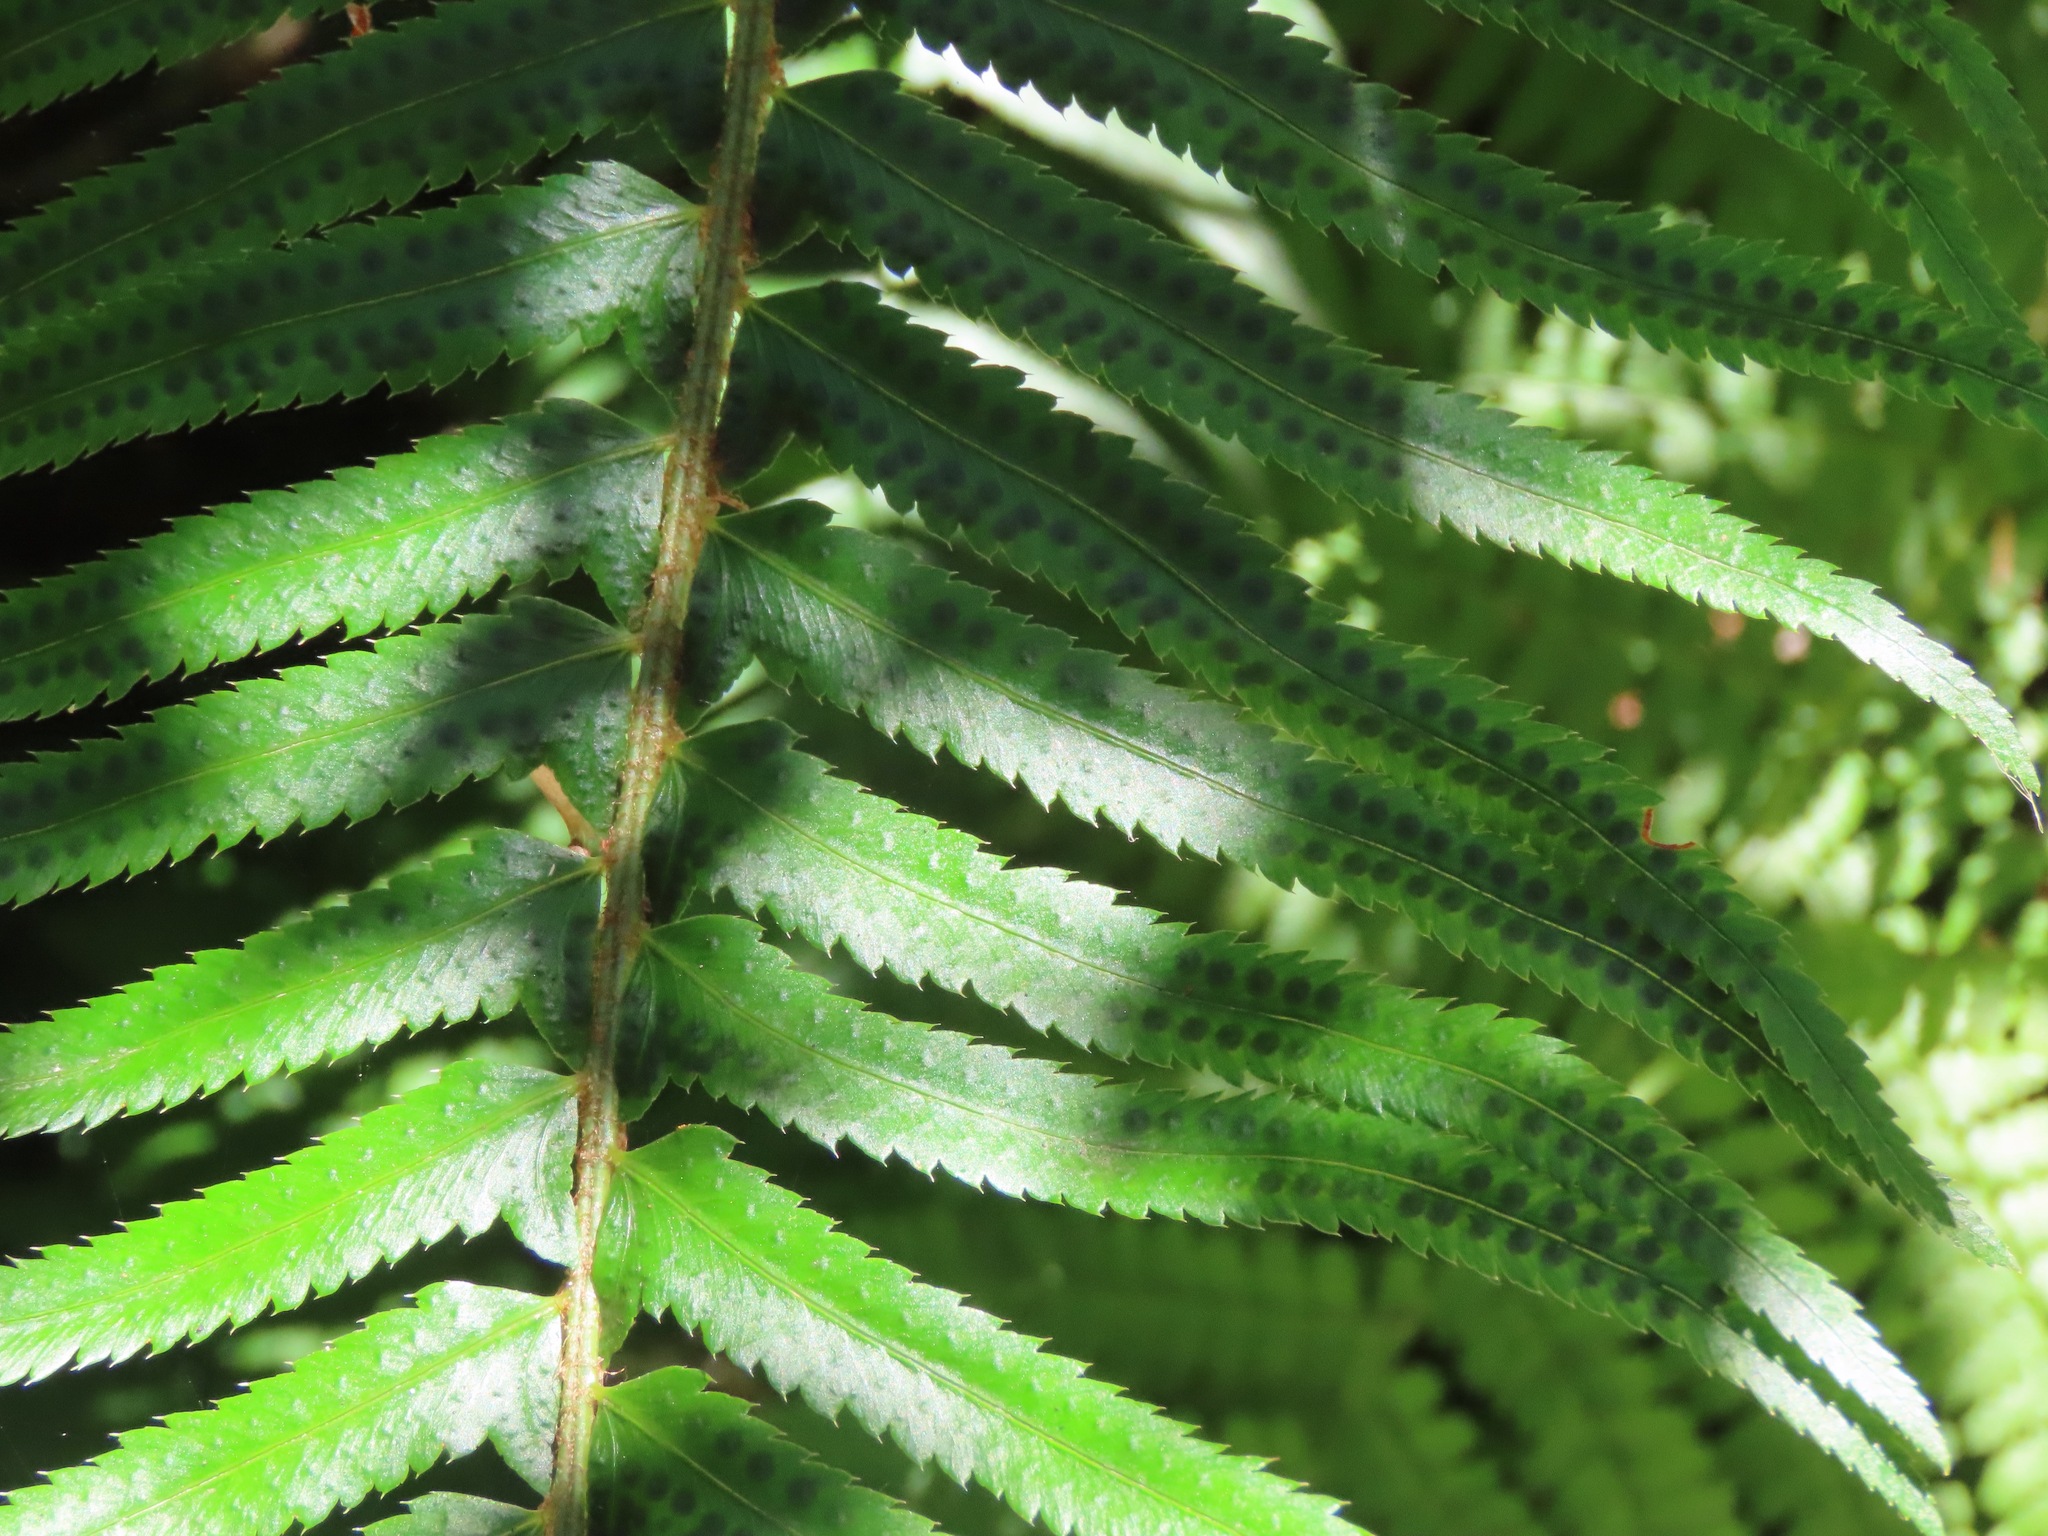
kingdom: Plantae
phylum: Tracheophyta
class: Polypodiopsida
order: Polypodiales
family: Dryopteridaceae
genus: Polystichum
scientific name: Polystichum munitum
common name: Western sword-fern
